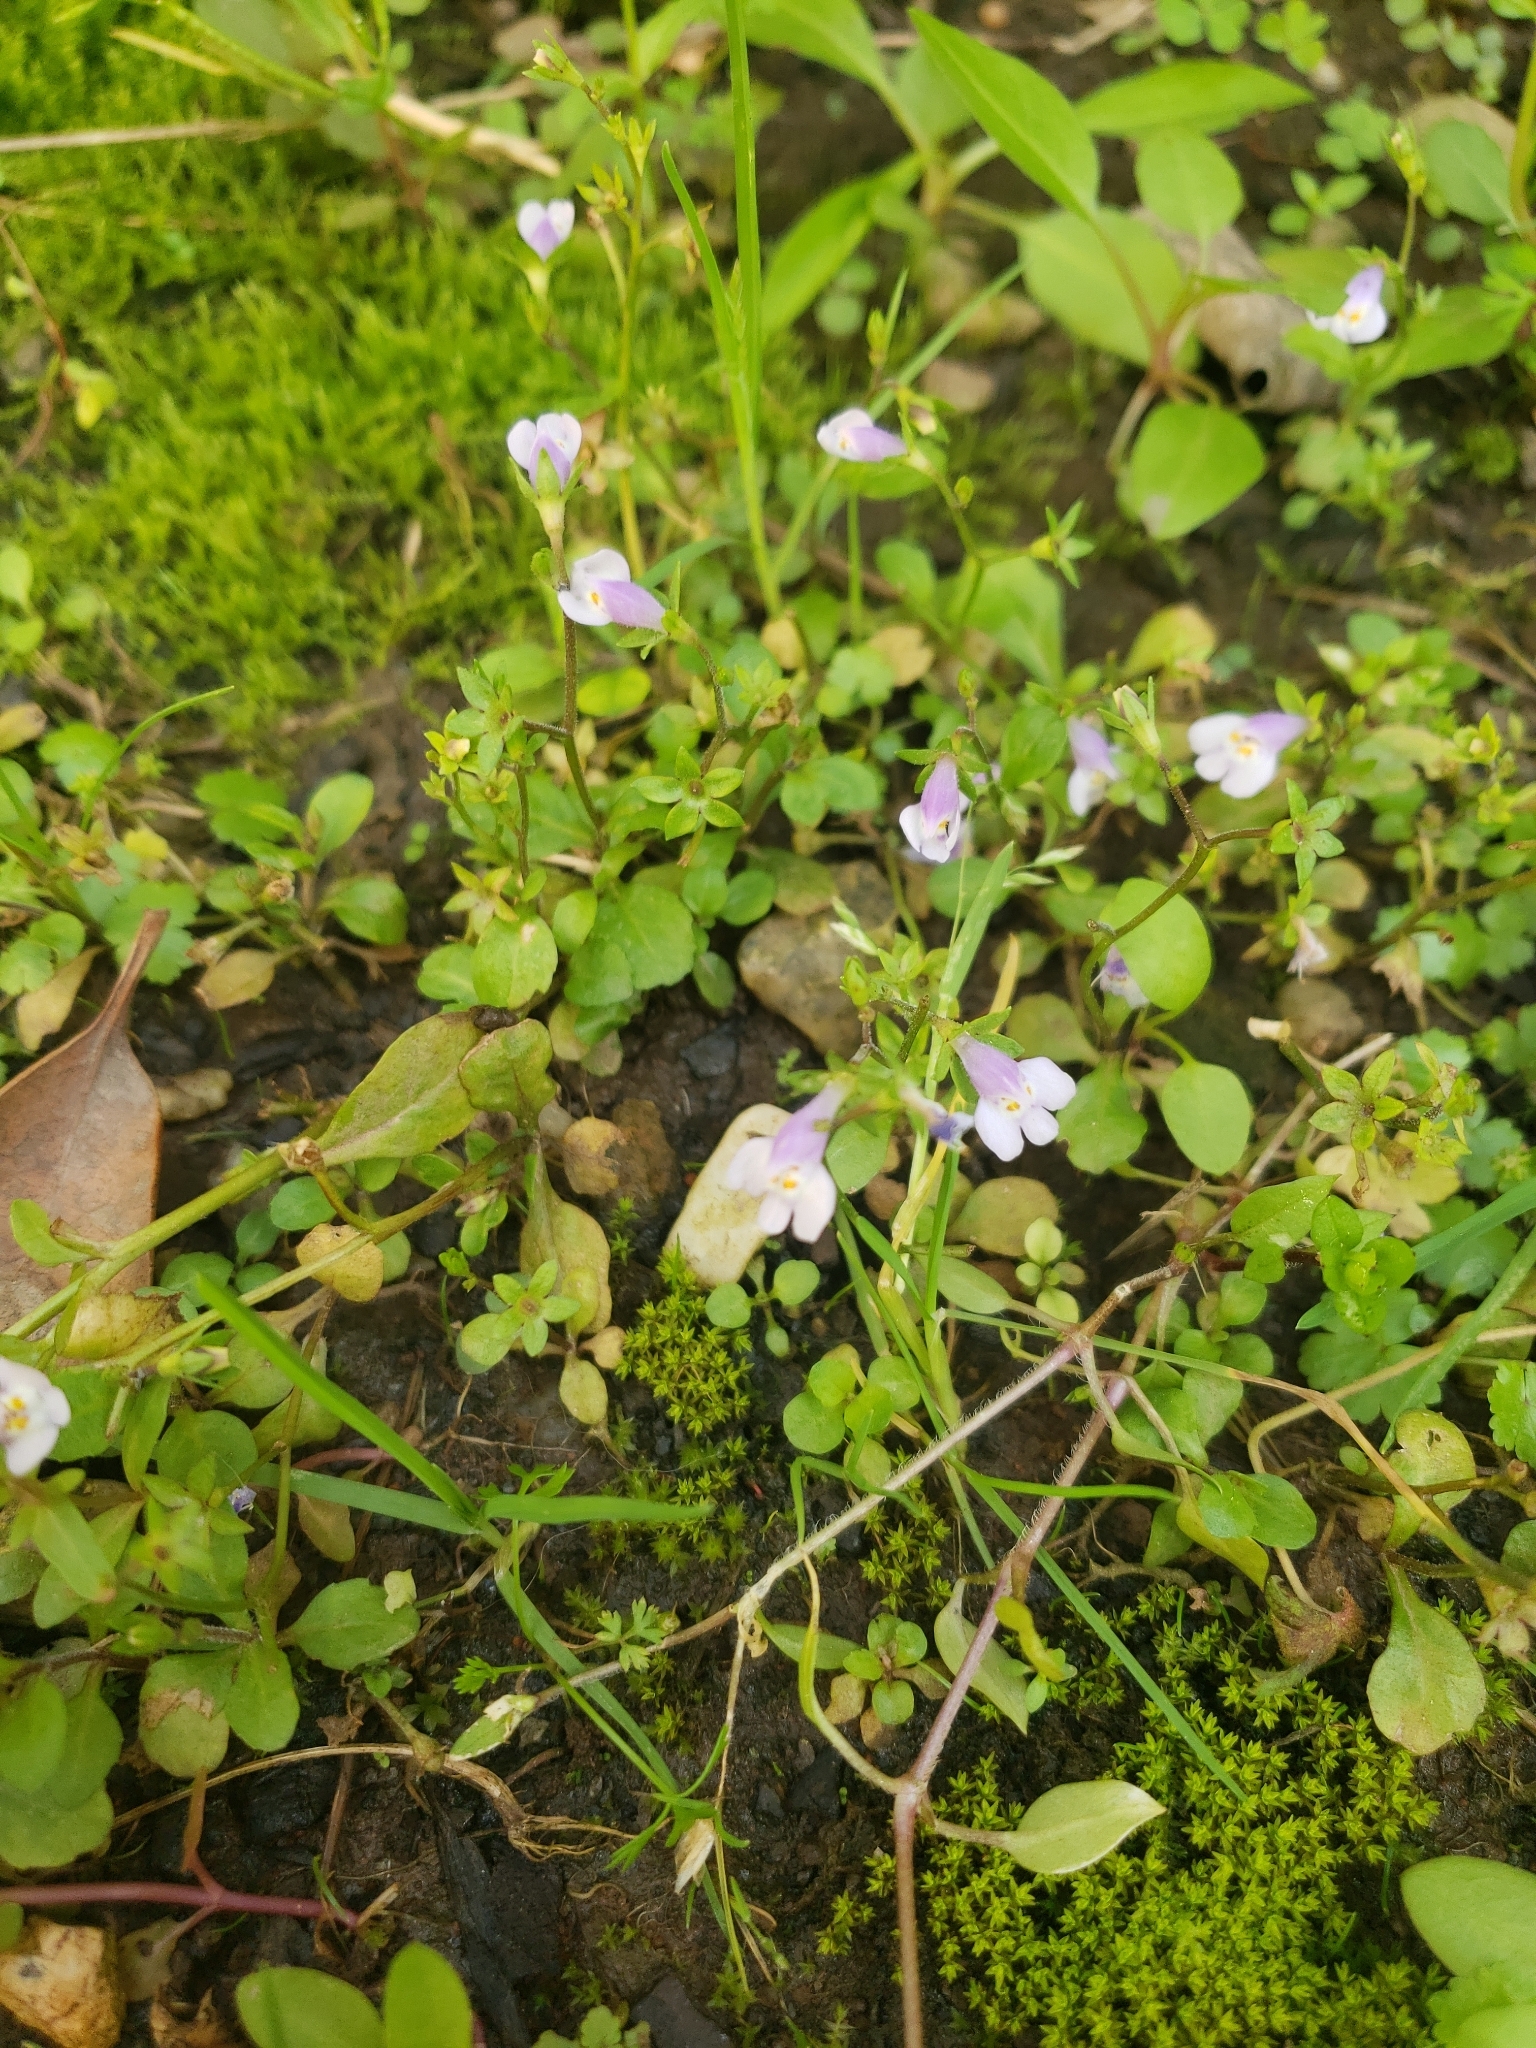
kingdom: Plantae
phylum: Tracheophyta
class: Magnoliopsida
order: Lamiales
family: Mazaceae
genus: Mazus
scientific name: Mazus pumilus
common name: Japanese mazus
